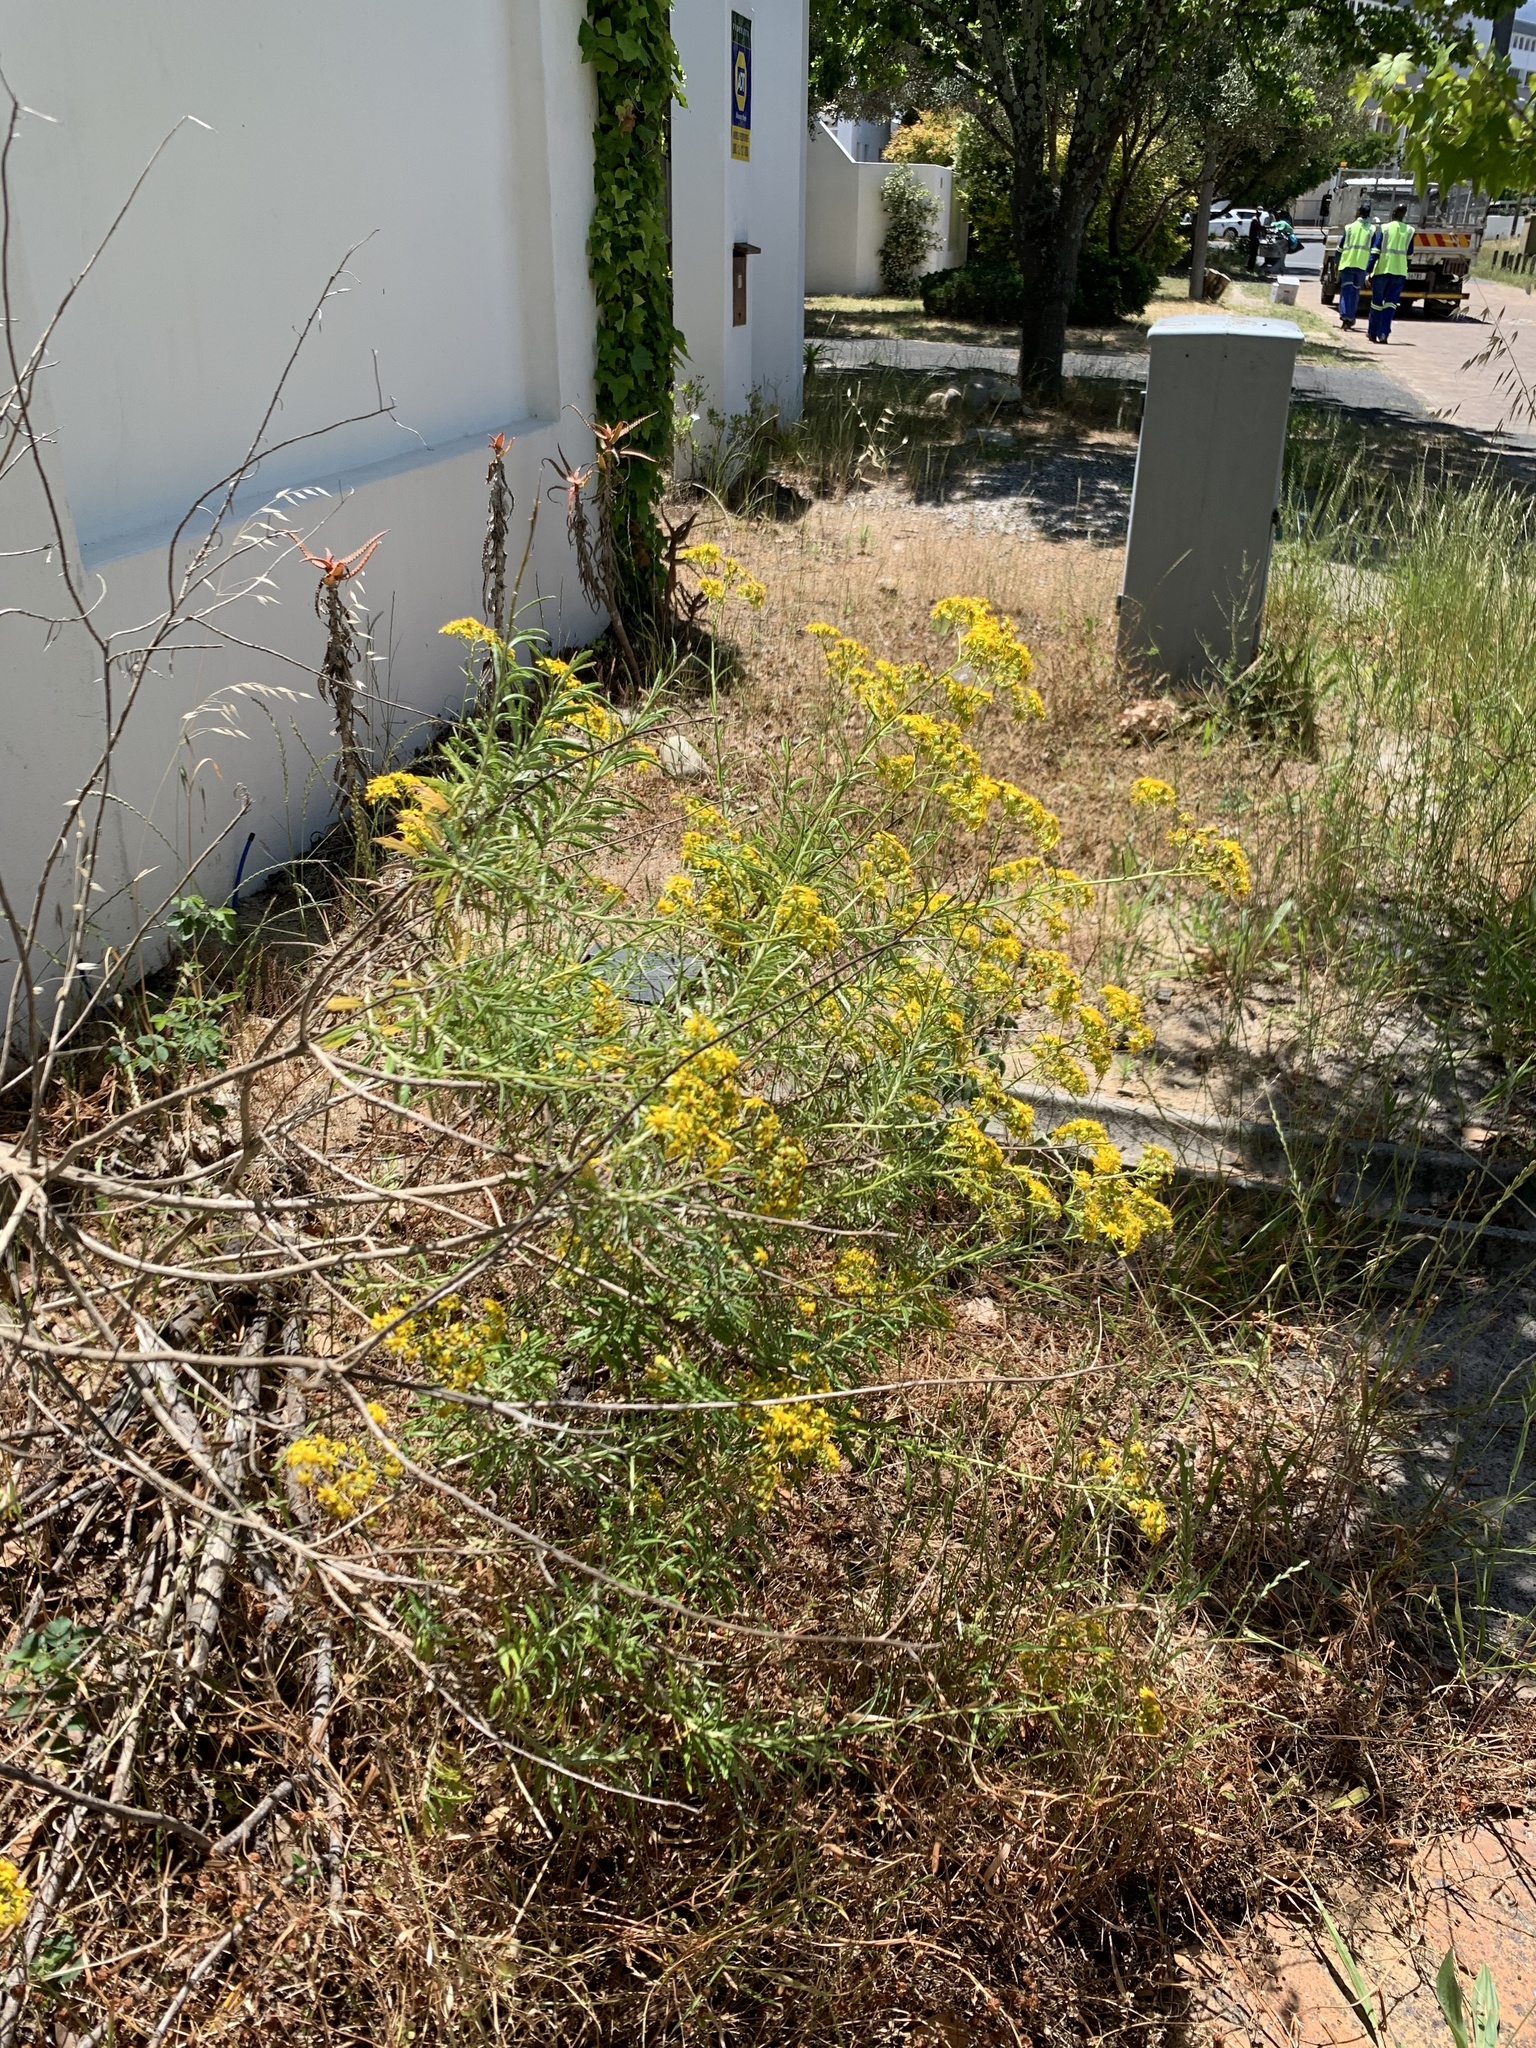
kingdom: Plantae
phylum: Tracheophyta
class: Magnoliopsida
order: Asterales
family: Asteraceae
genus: Senecio
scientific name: Senecio pterophorus
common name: Shoddy ragwort
